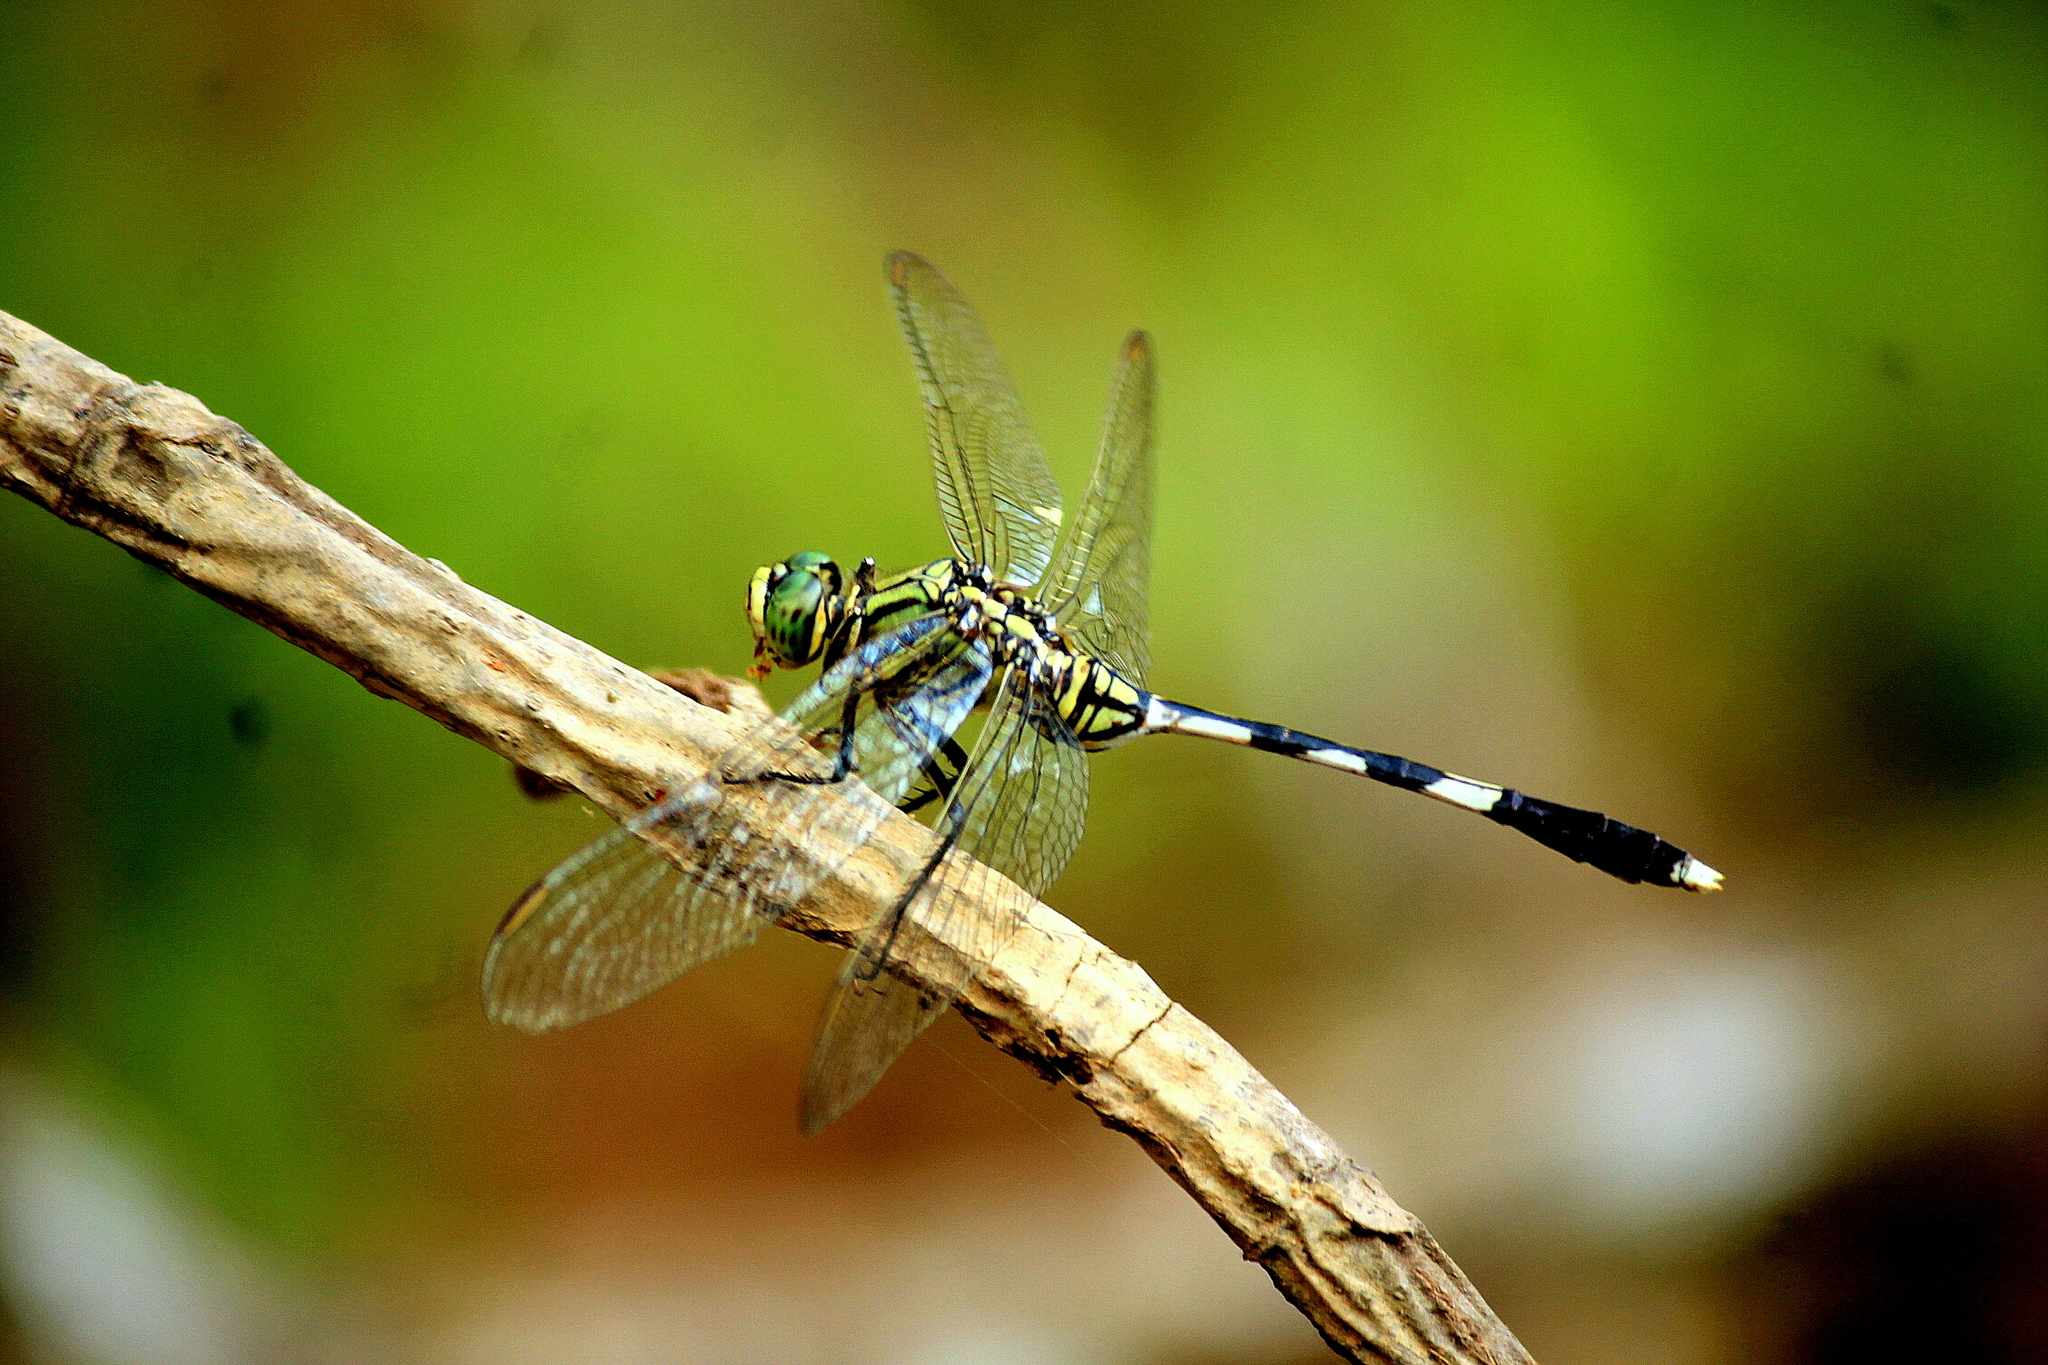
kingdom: Animalia
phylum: Arthropoda
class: Insecta
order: Odonata
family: Libellulidae
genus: Orthetrum
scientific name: Orthetrum sabina
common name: Slender skimmer
